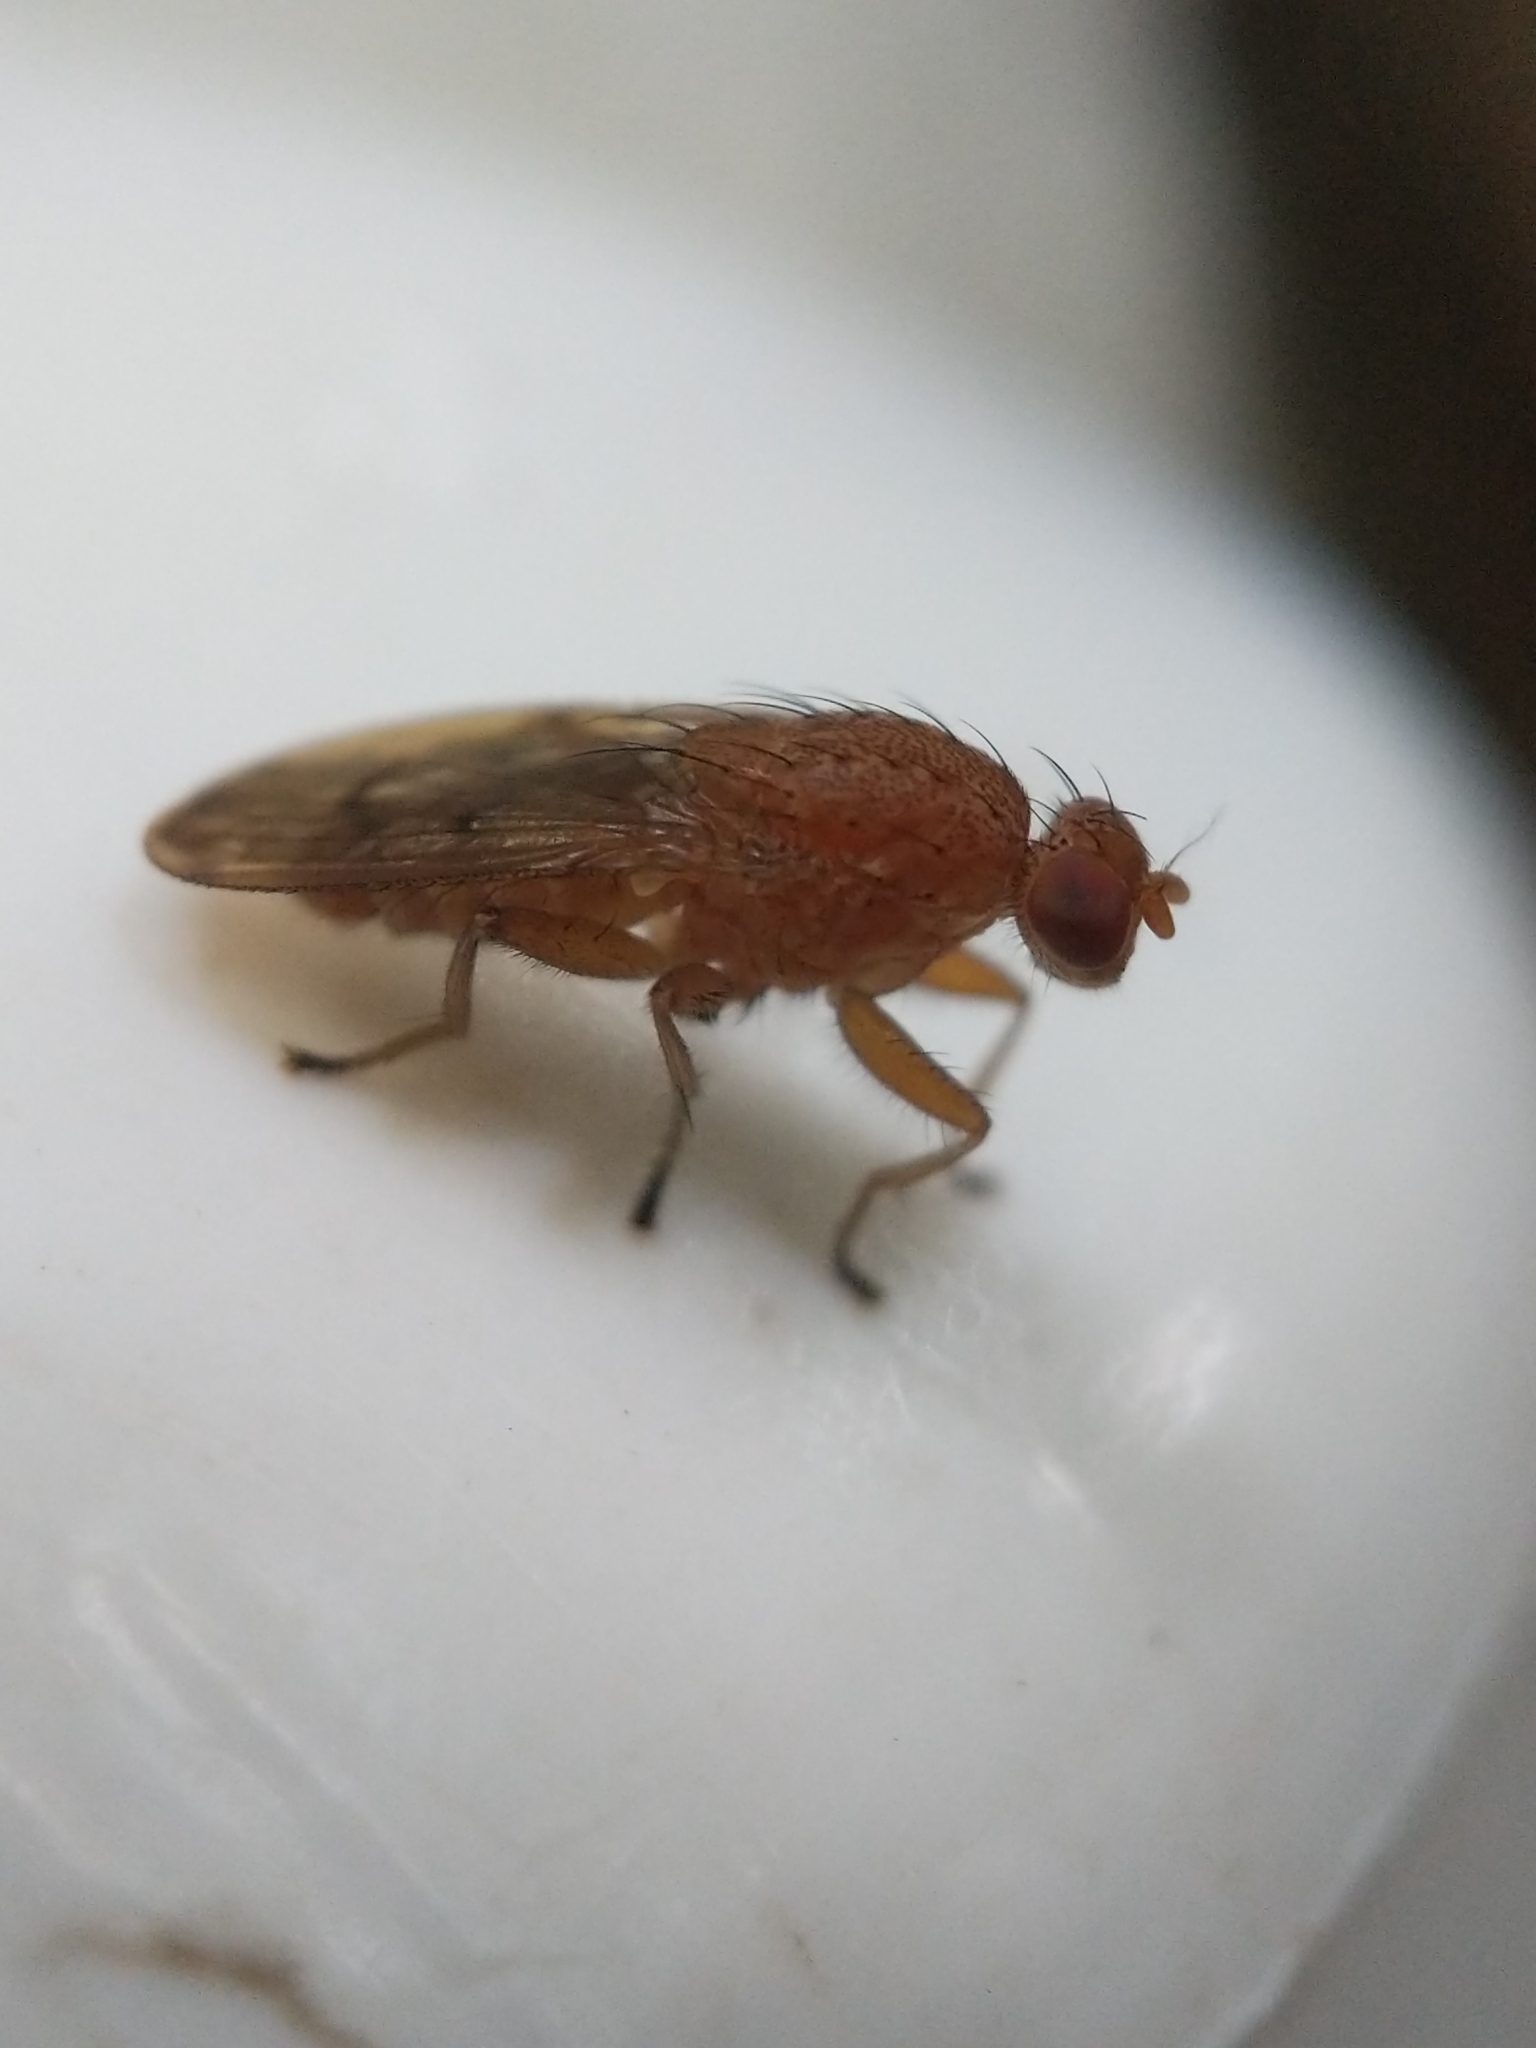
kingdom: Animalia
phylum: Arthropoda
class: Insecta
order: Diptera
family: Heleomyzidae
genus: Suillia
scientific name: Suillia quinquepunctata
